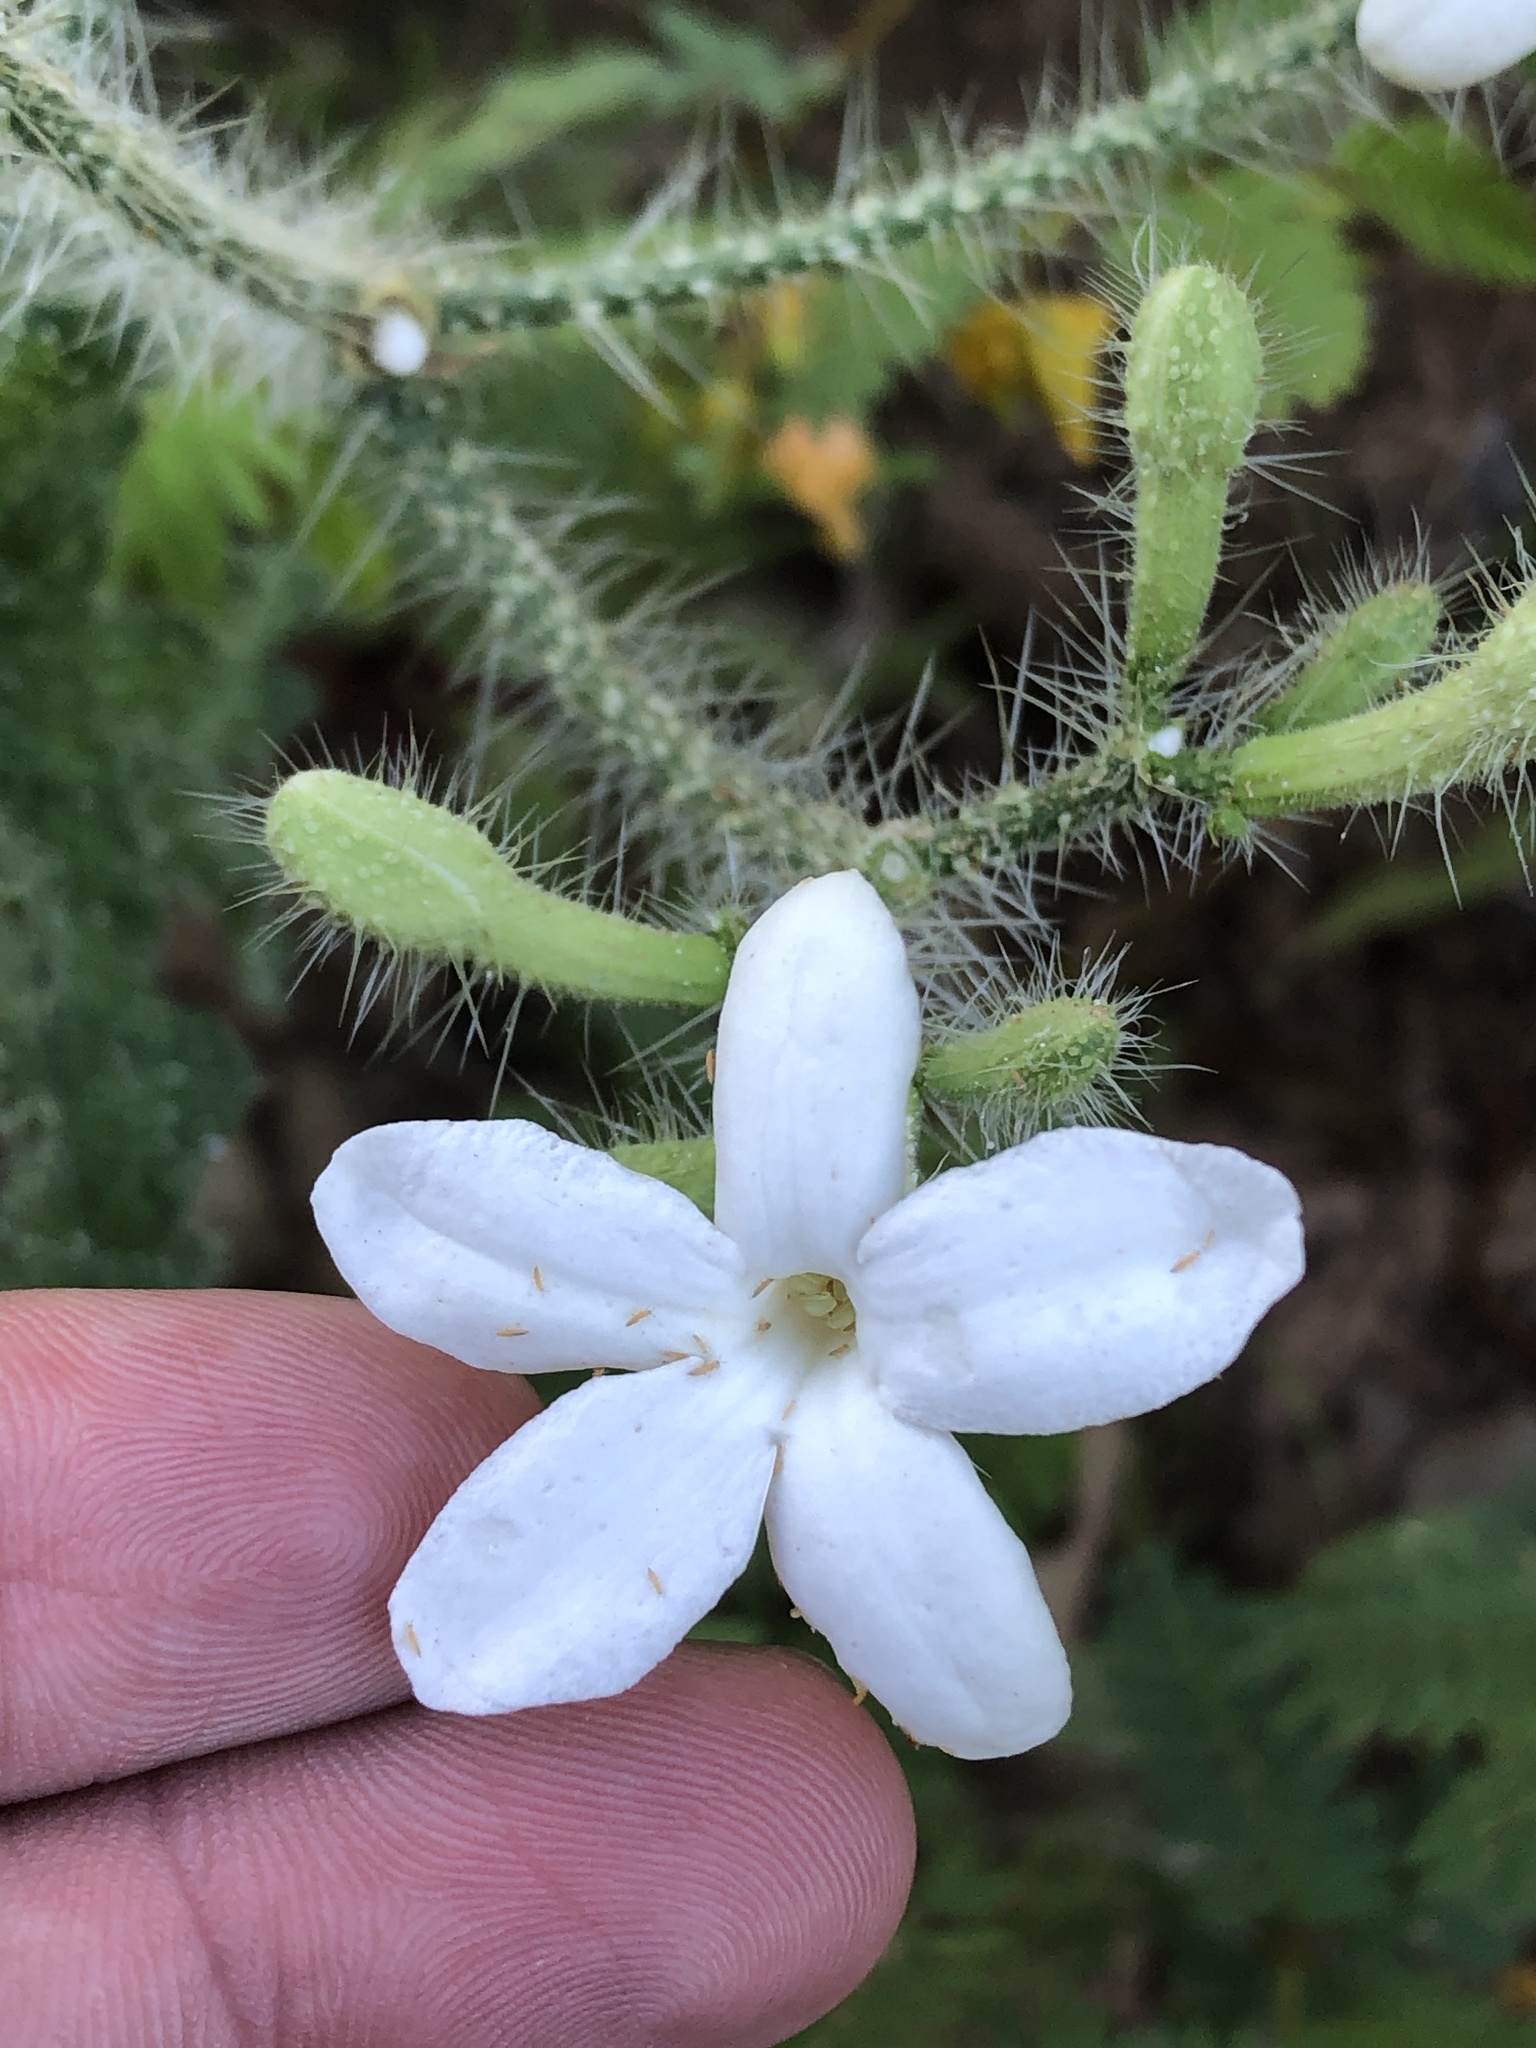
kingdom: Plantae
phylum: Tracheophyta
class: Magnoliopsida
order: Malpighiales
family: Euphorbiaceae
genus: Cnidoscolus
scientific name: Cnidoscolus texanus
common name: Texas bull-nettle
